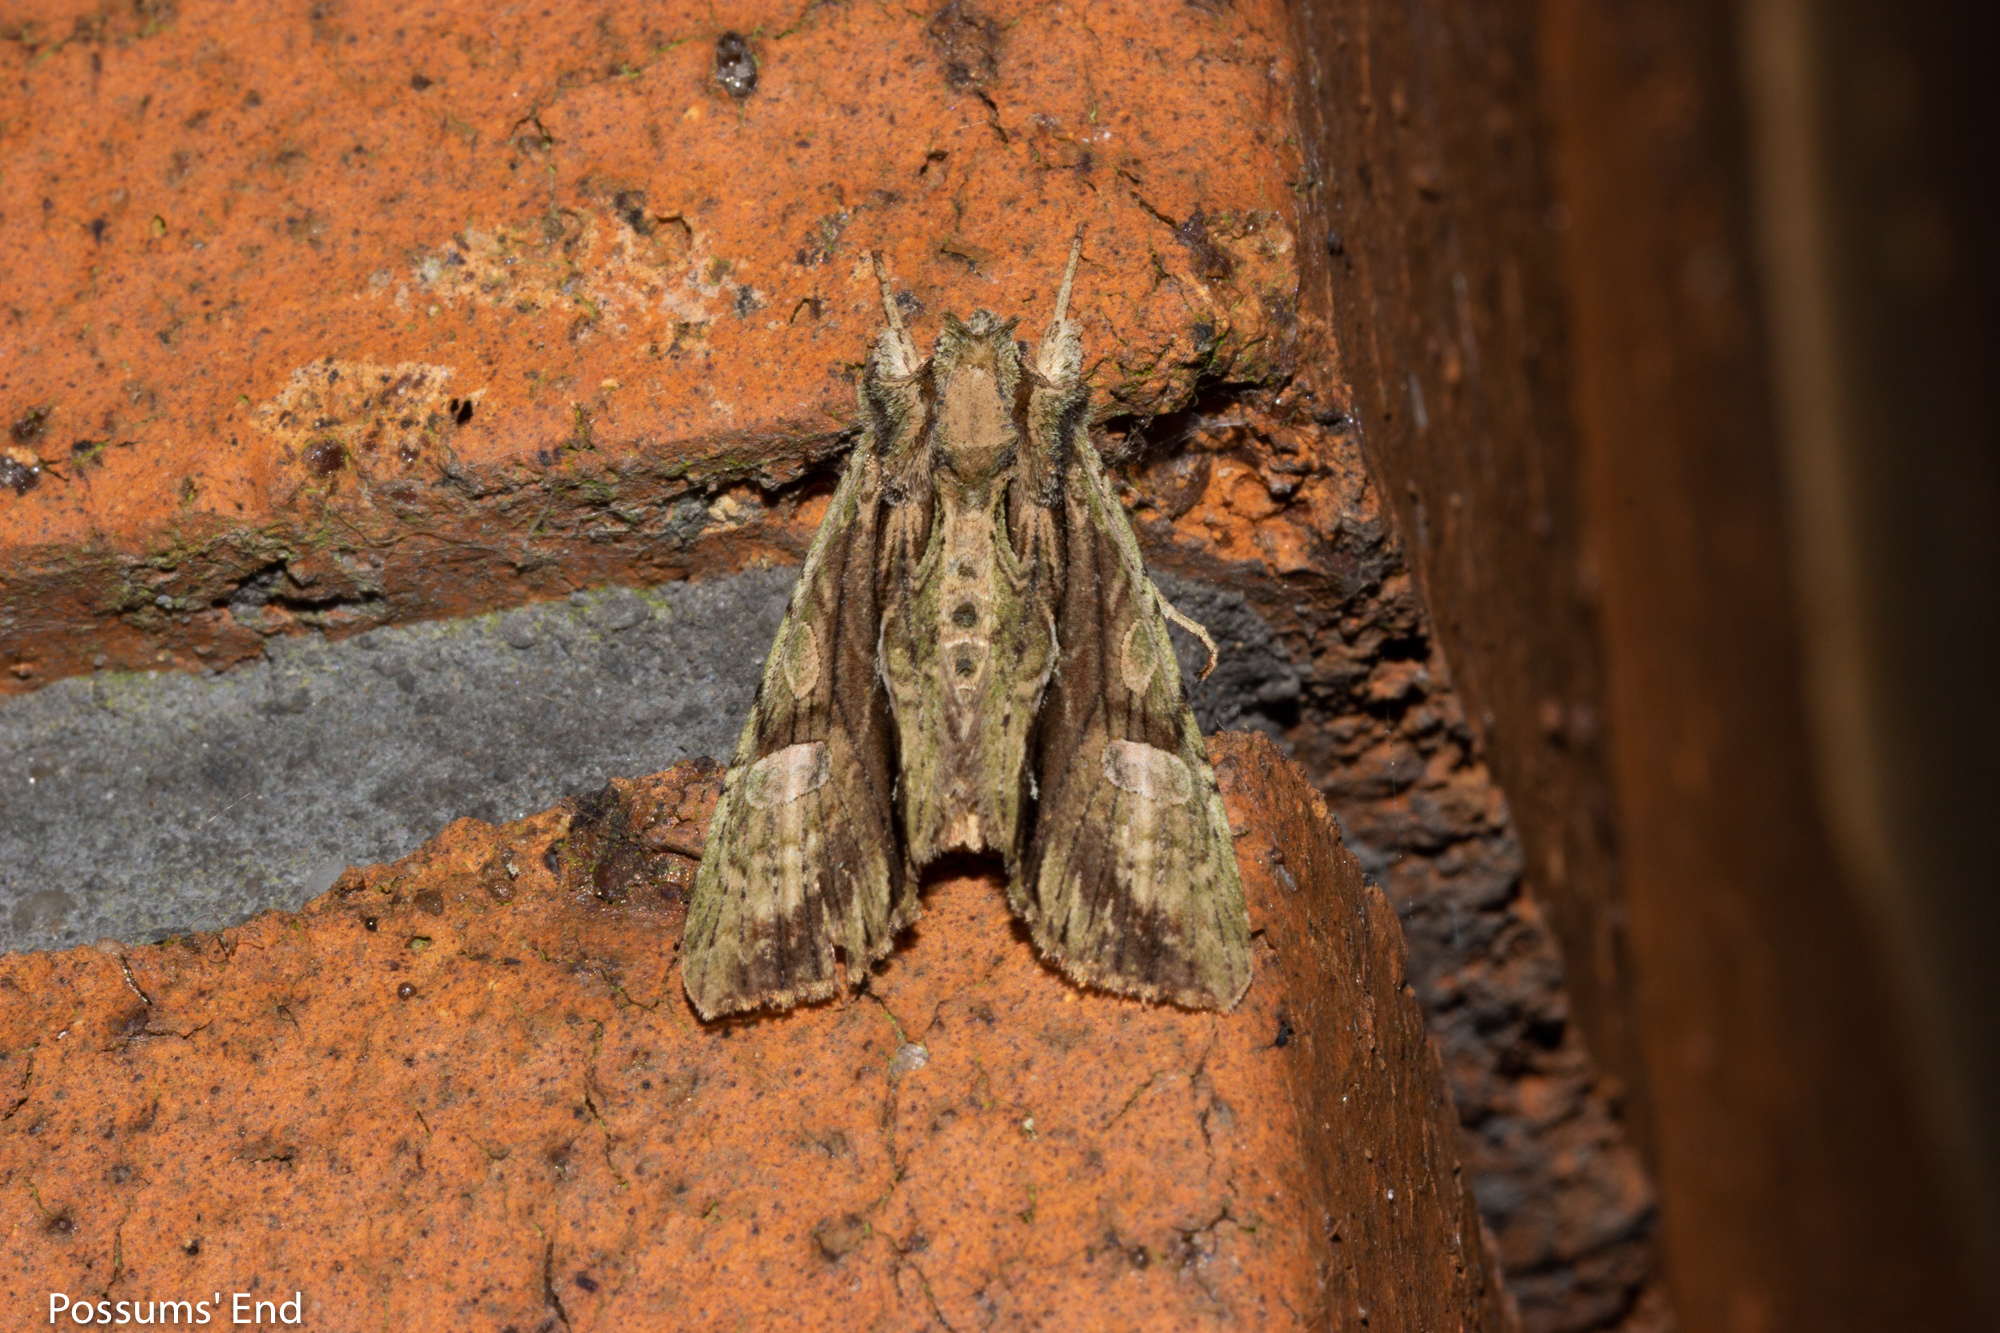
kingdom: Animalia
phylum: Arthropoda
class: Insecta
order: Lepidoptera
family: Noctuidae
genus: Meterana
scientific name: Meterana decorata
